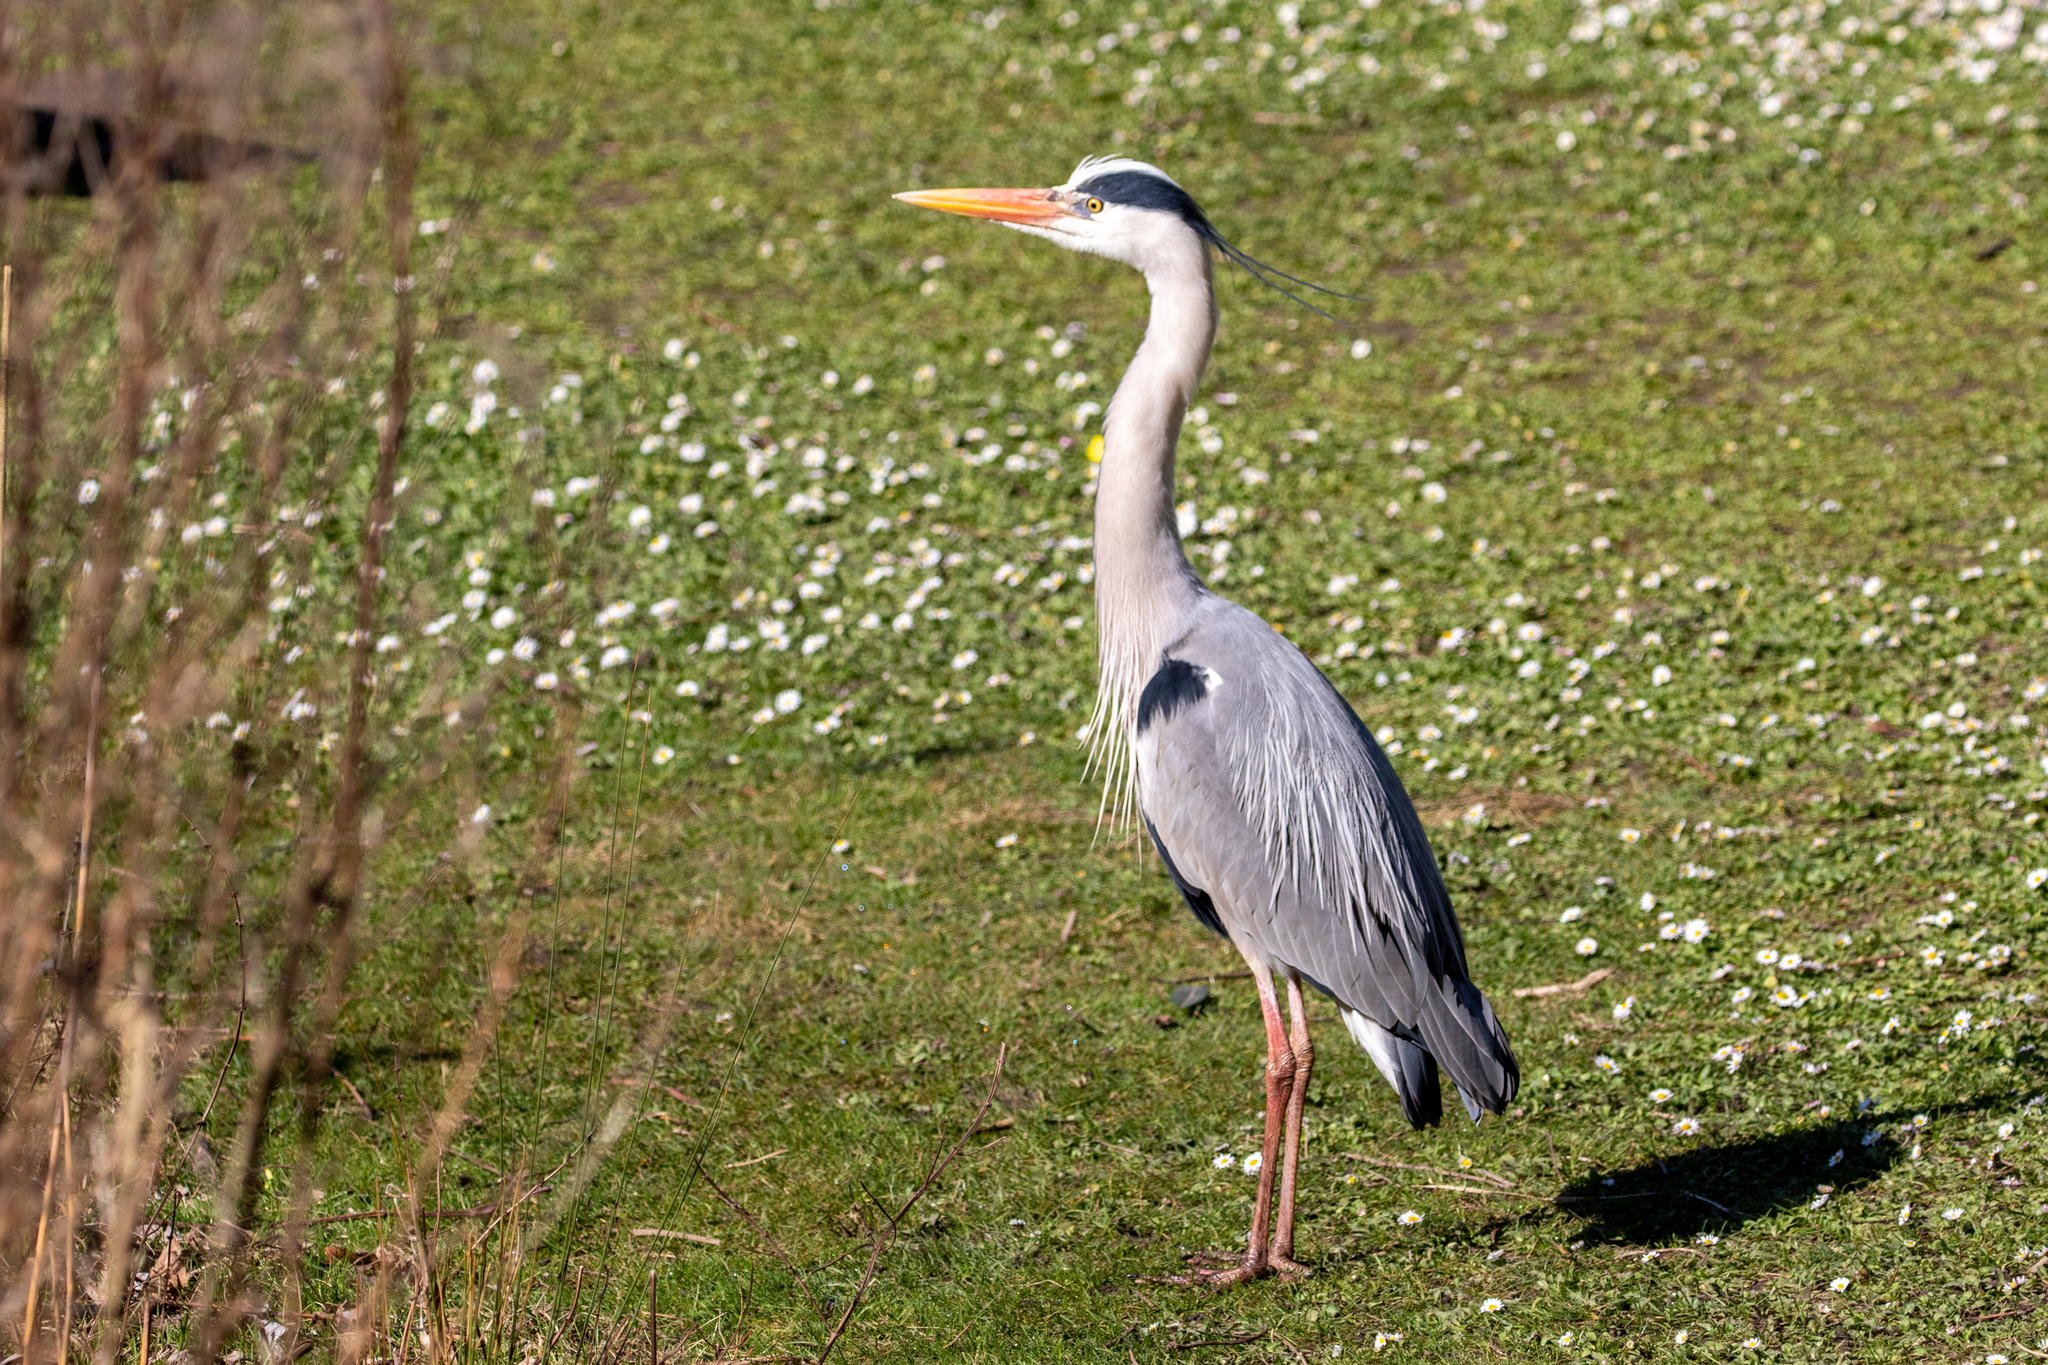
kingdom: Animalia
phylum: Chordata
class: Aves
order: Pelecaniformes
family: Ardeidae
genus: Ardea
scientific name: Ardea cinerea
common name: Grey heron
